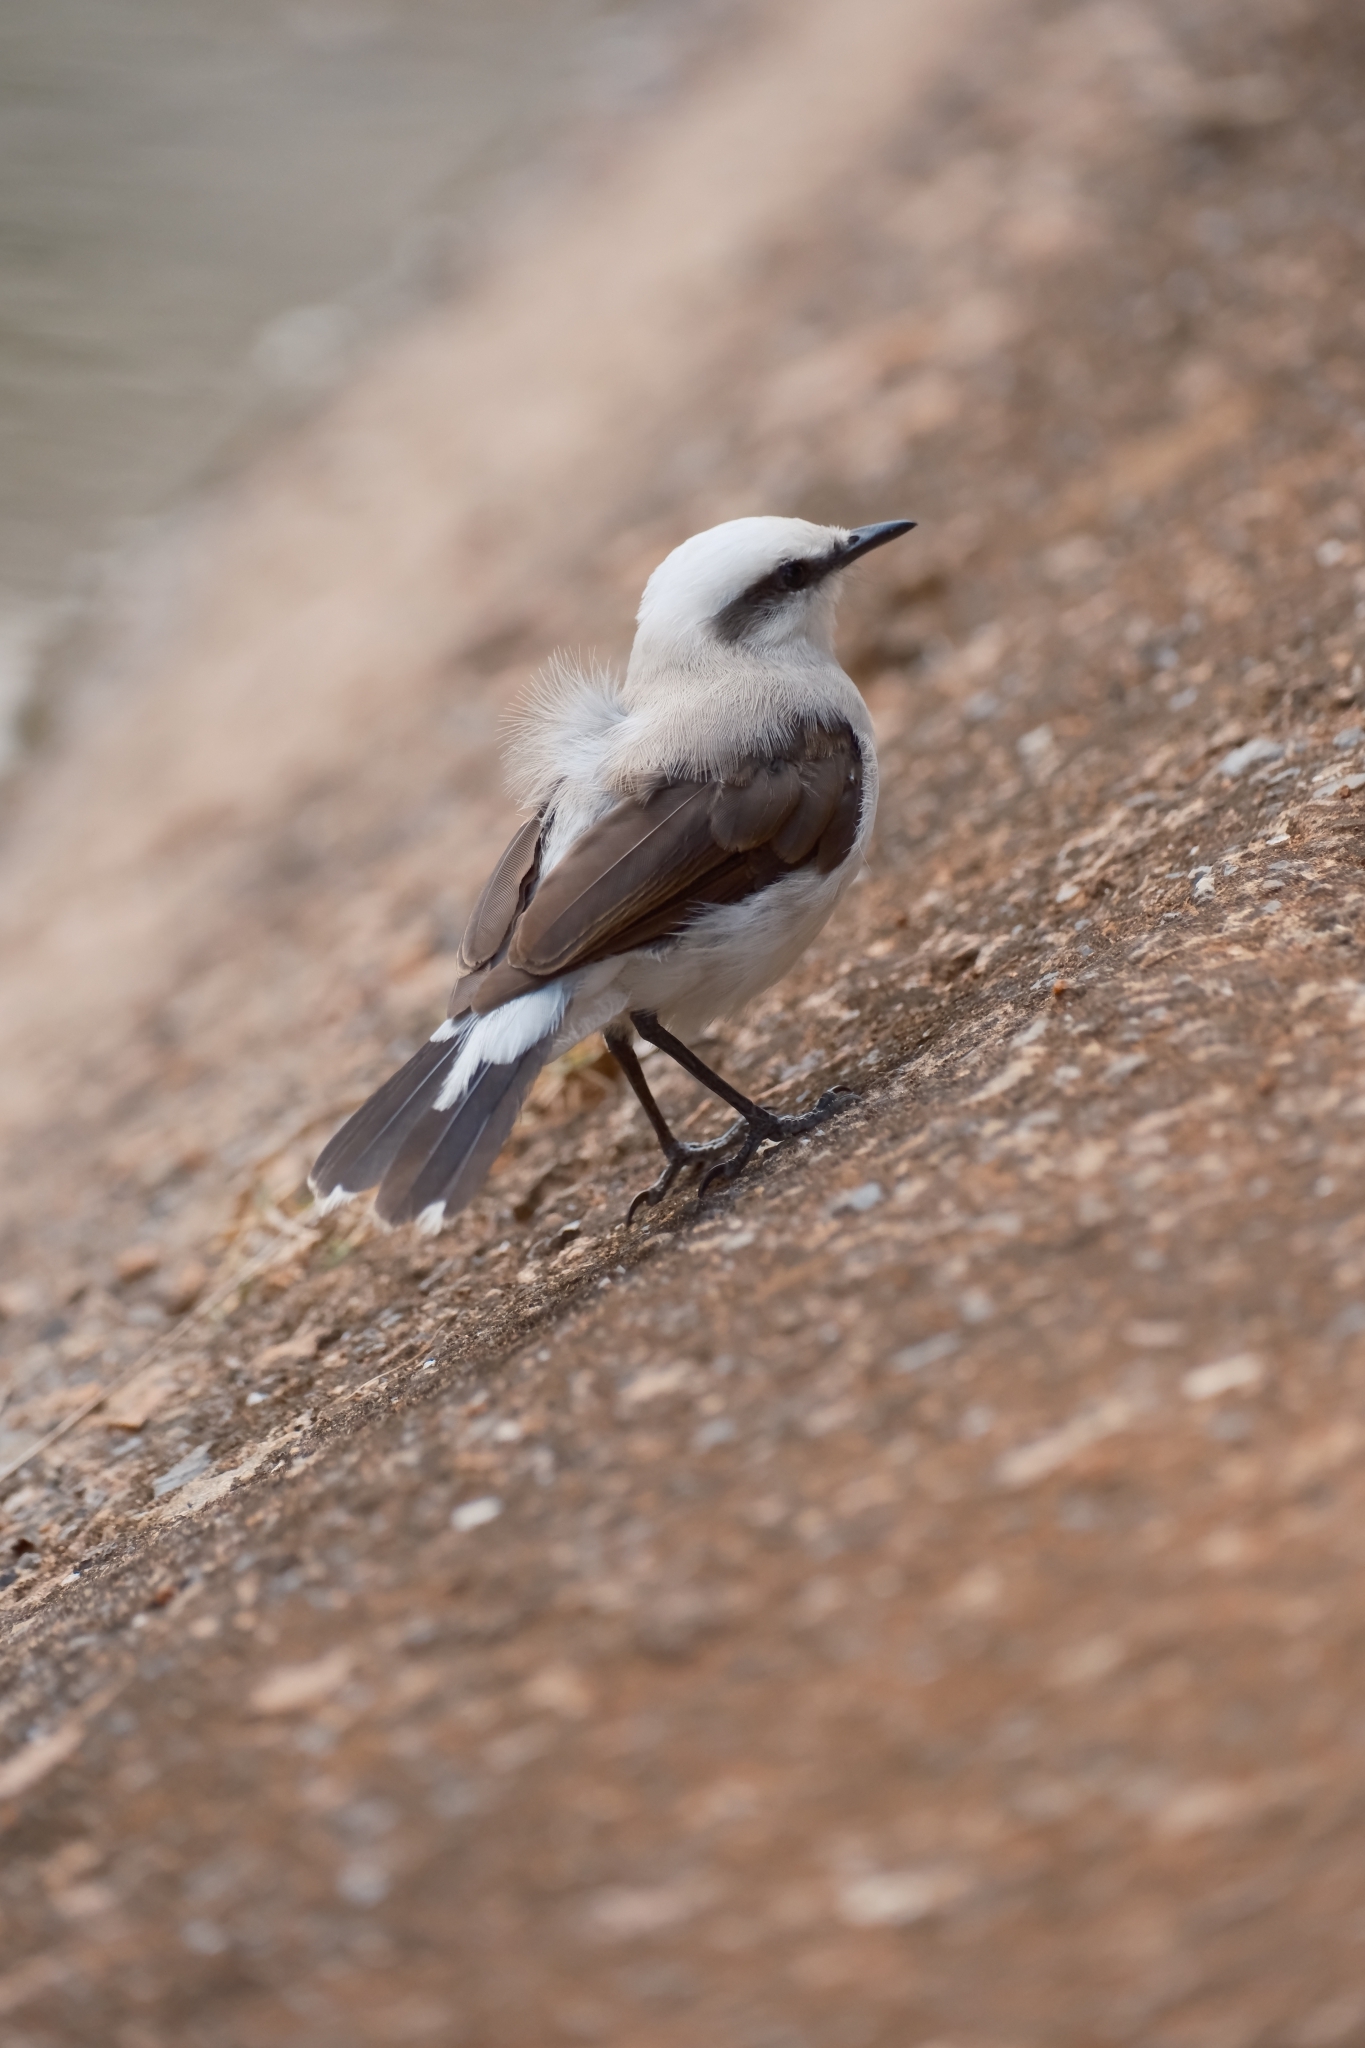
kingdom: Animalia
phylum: Chordata
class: Aves
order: Passeriformes
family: Tyrannidae
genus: Fluvicola
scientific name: Fluvicola nengeta
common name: Masked water tyrant
